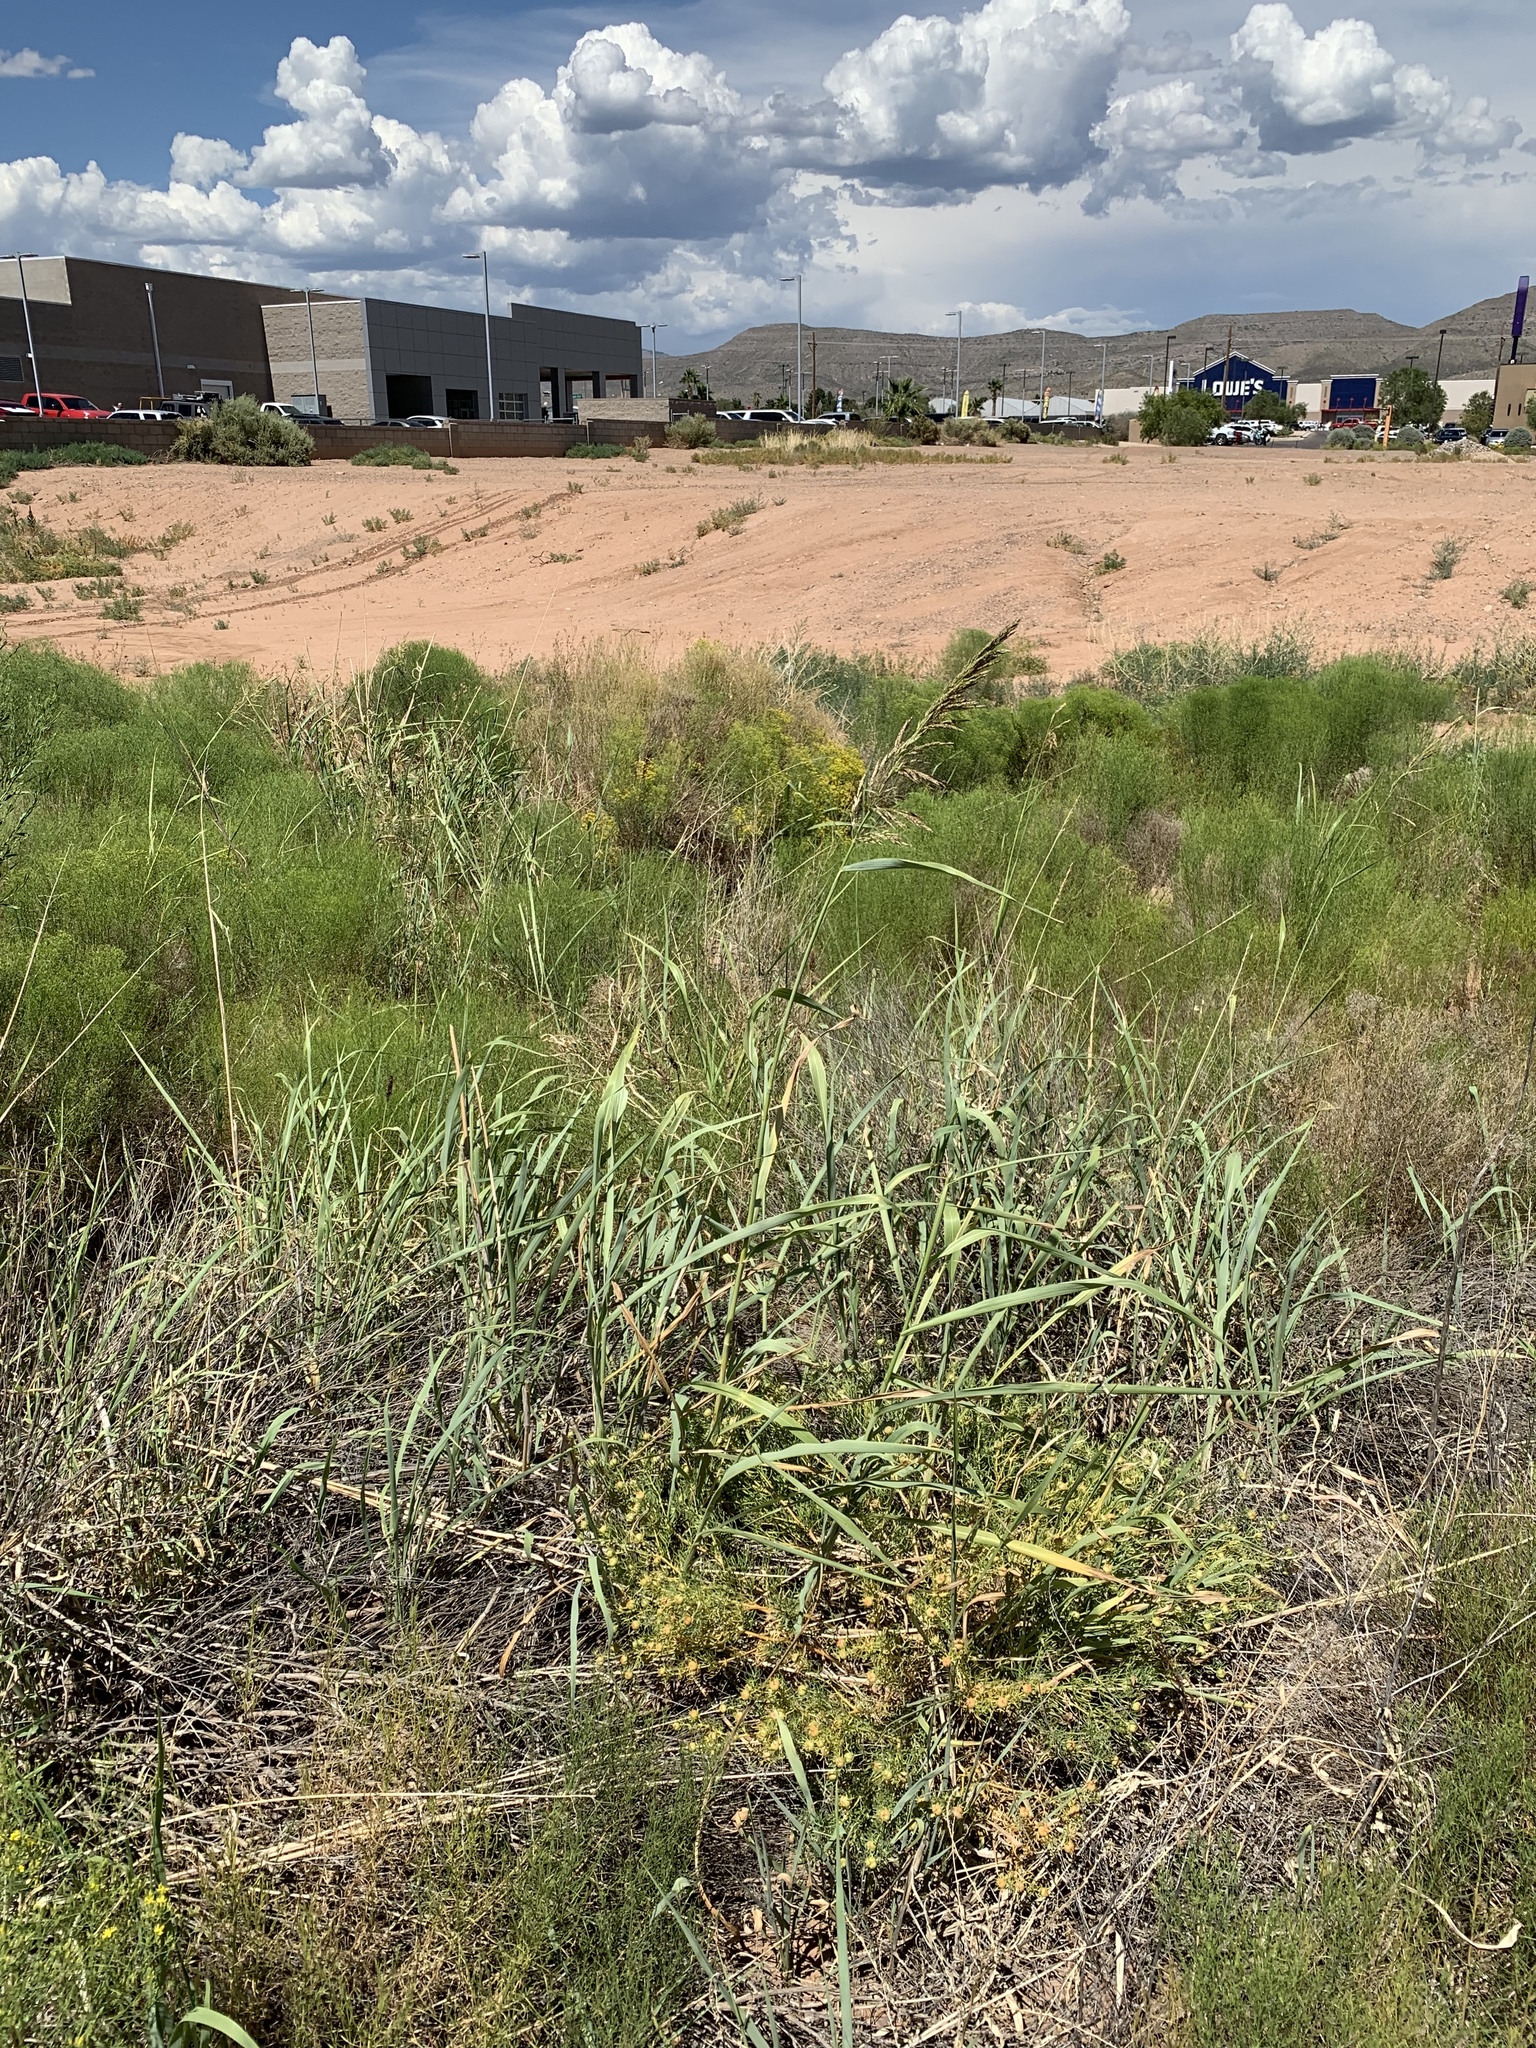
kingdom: Plantae
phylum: Tracheophyta
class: Liliopsida
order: Poales
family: Poaceae
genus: Sorghum
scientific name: Sorghum halepense
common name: Johnson-grass
